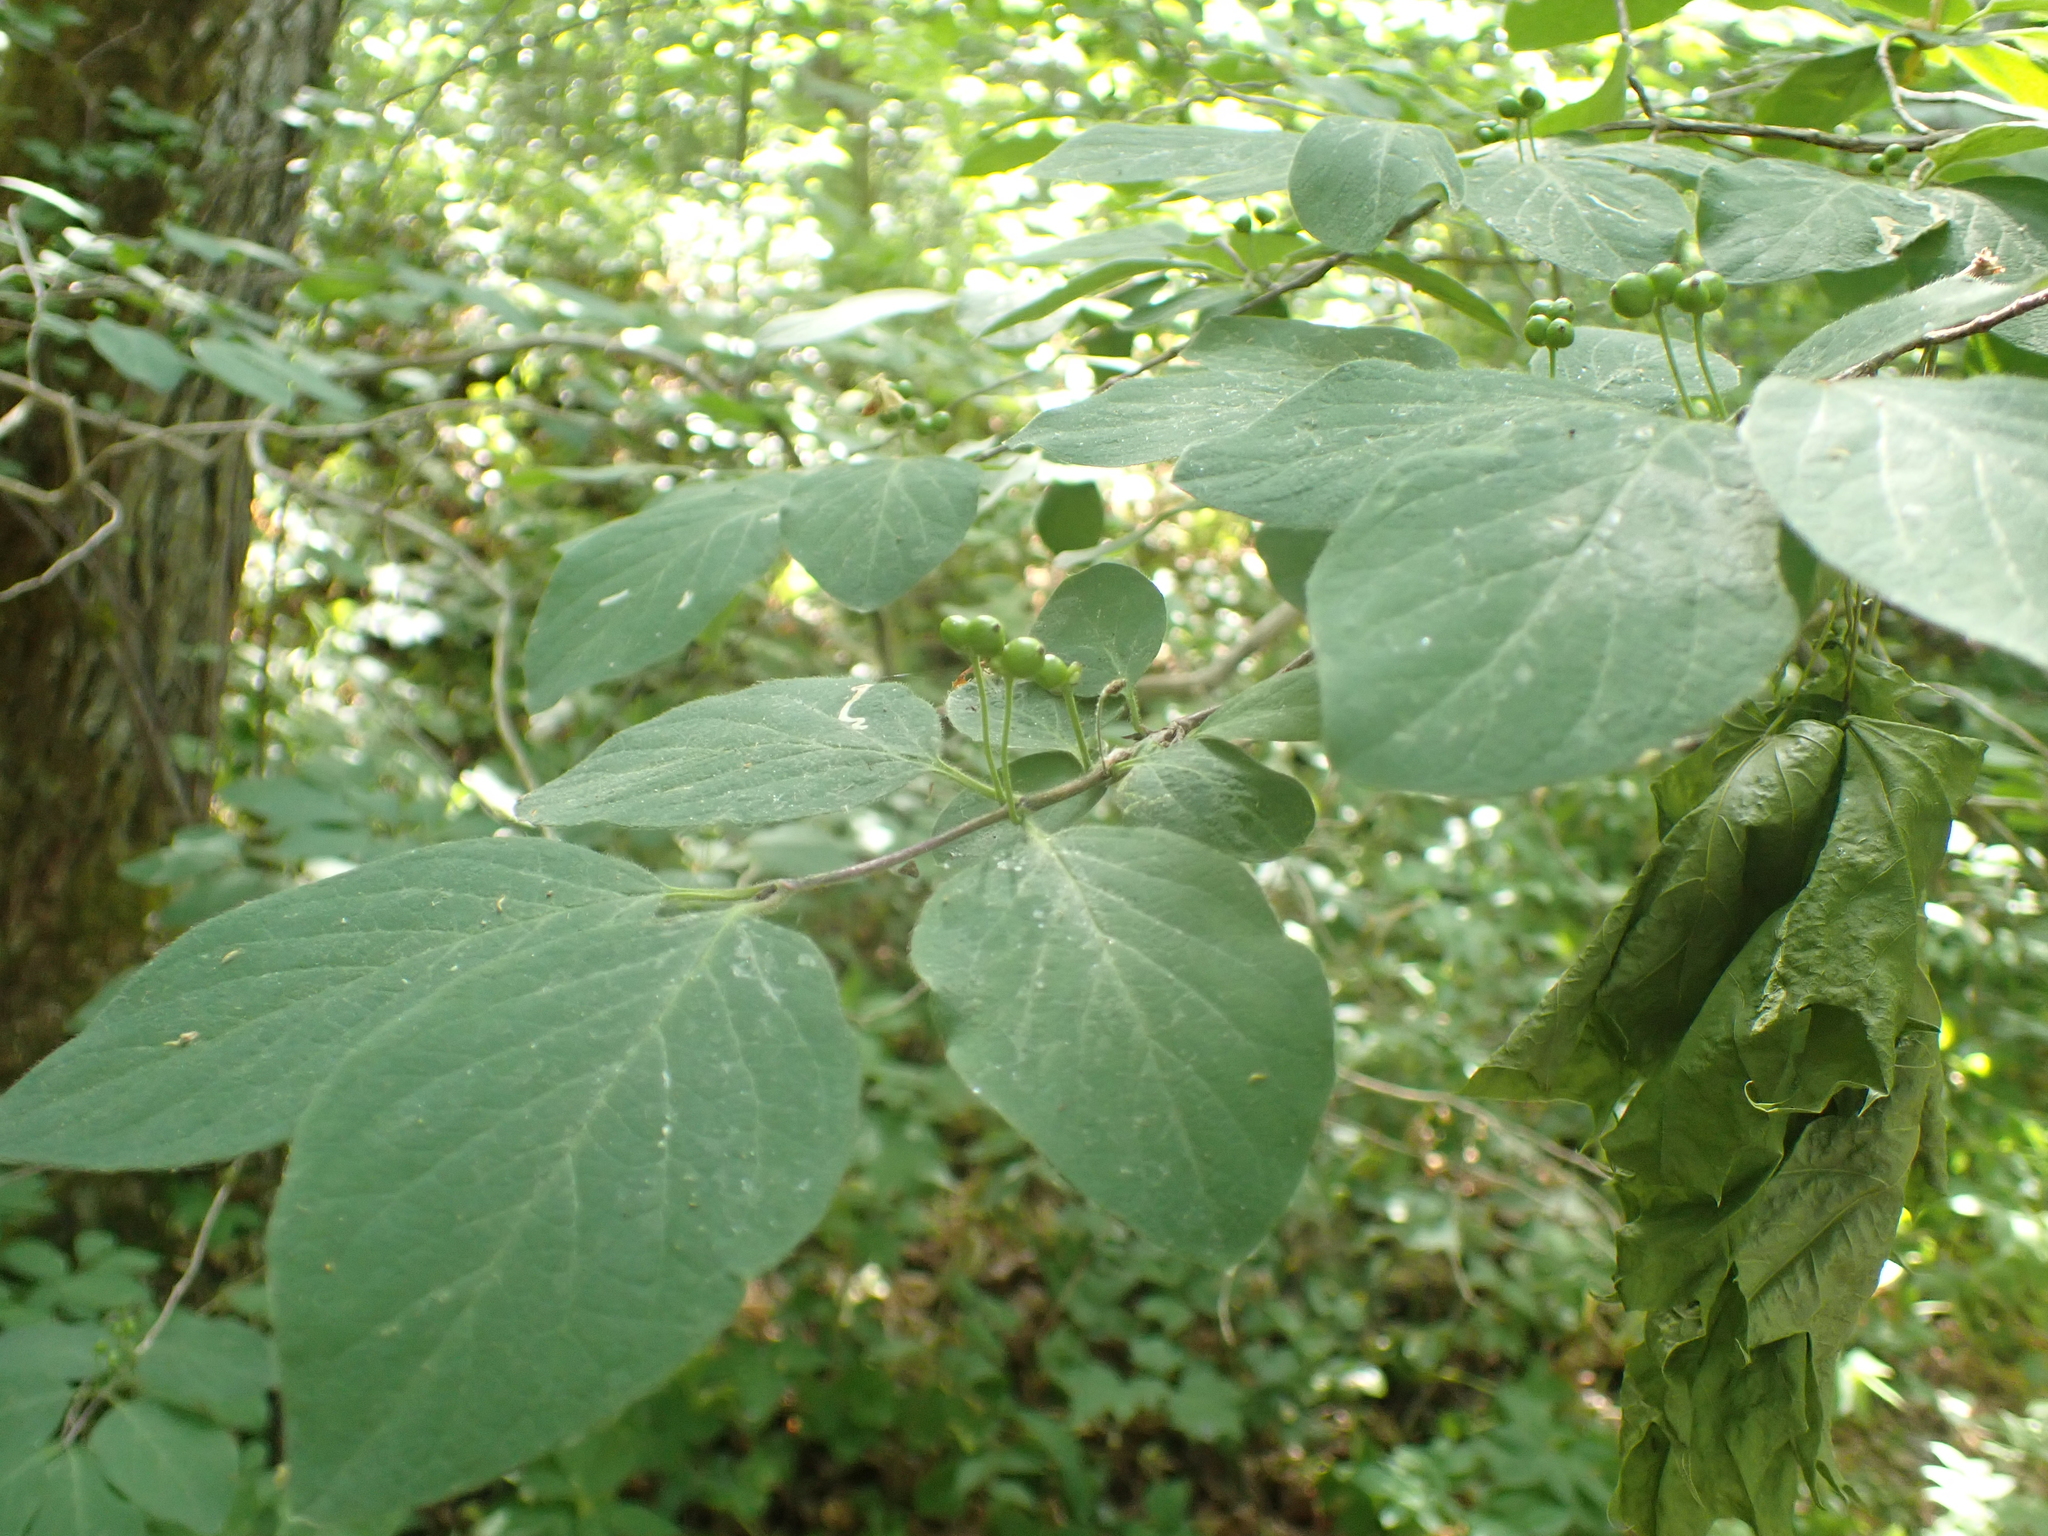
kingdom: Plantae
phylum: Tracheophyta
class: Magnoliopsida
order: Dipsacales
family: Caprifoliaceae
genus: Lonicera
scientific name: Lonicera xylosteum
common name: Fly honeysuckle
